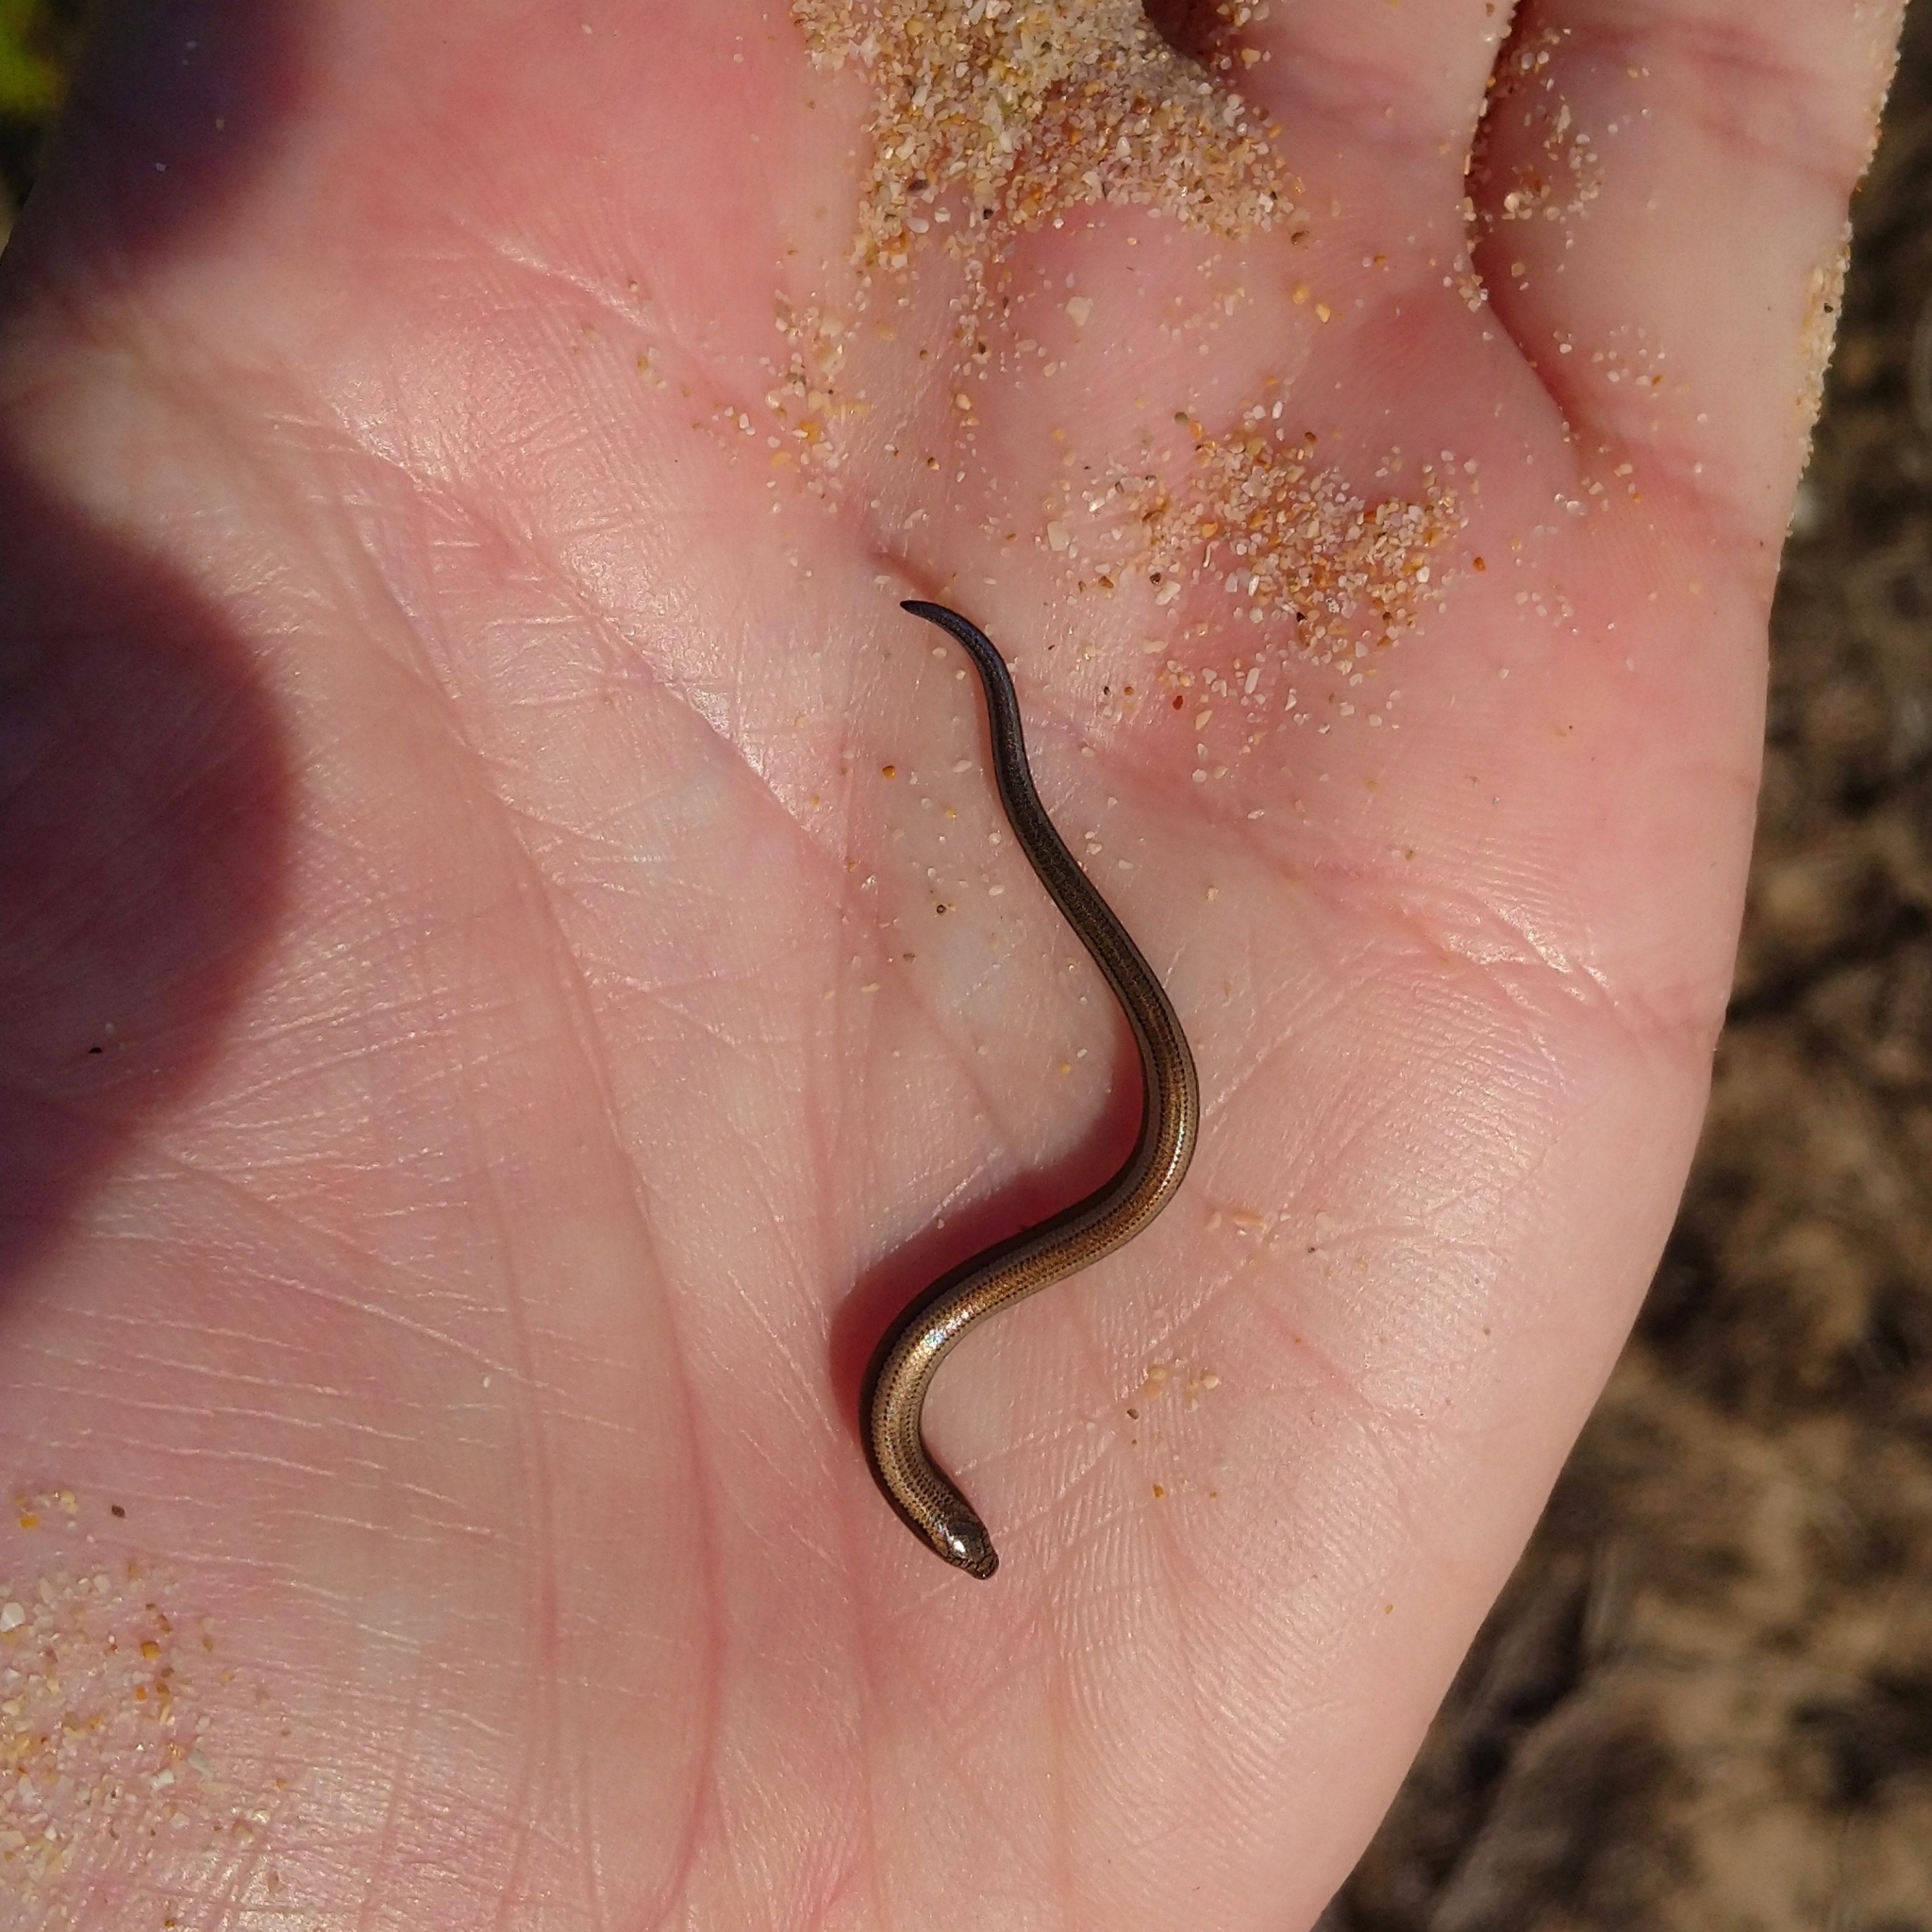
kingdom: Animalia
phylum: Chordata
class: Squamata
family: Scincidae
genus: Scelotes
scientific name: Scelotes anguineus
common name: Algoa dwarf burrowing skink
